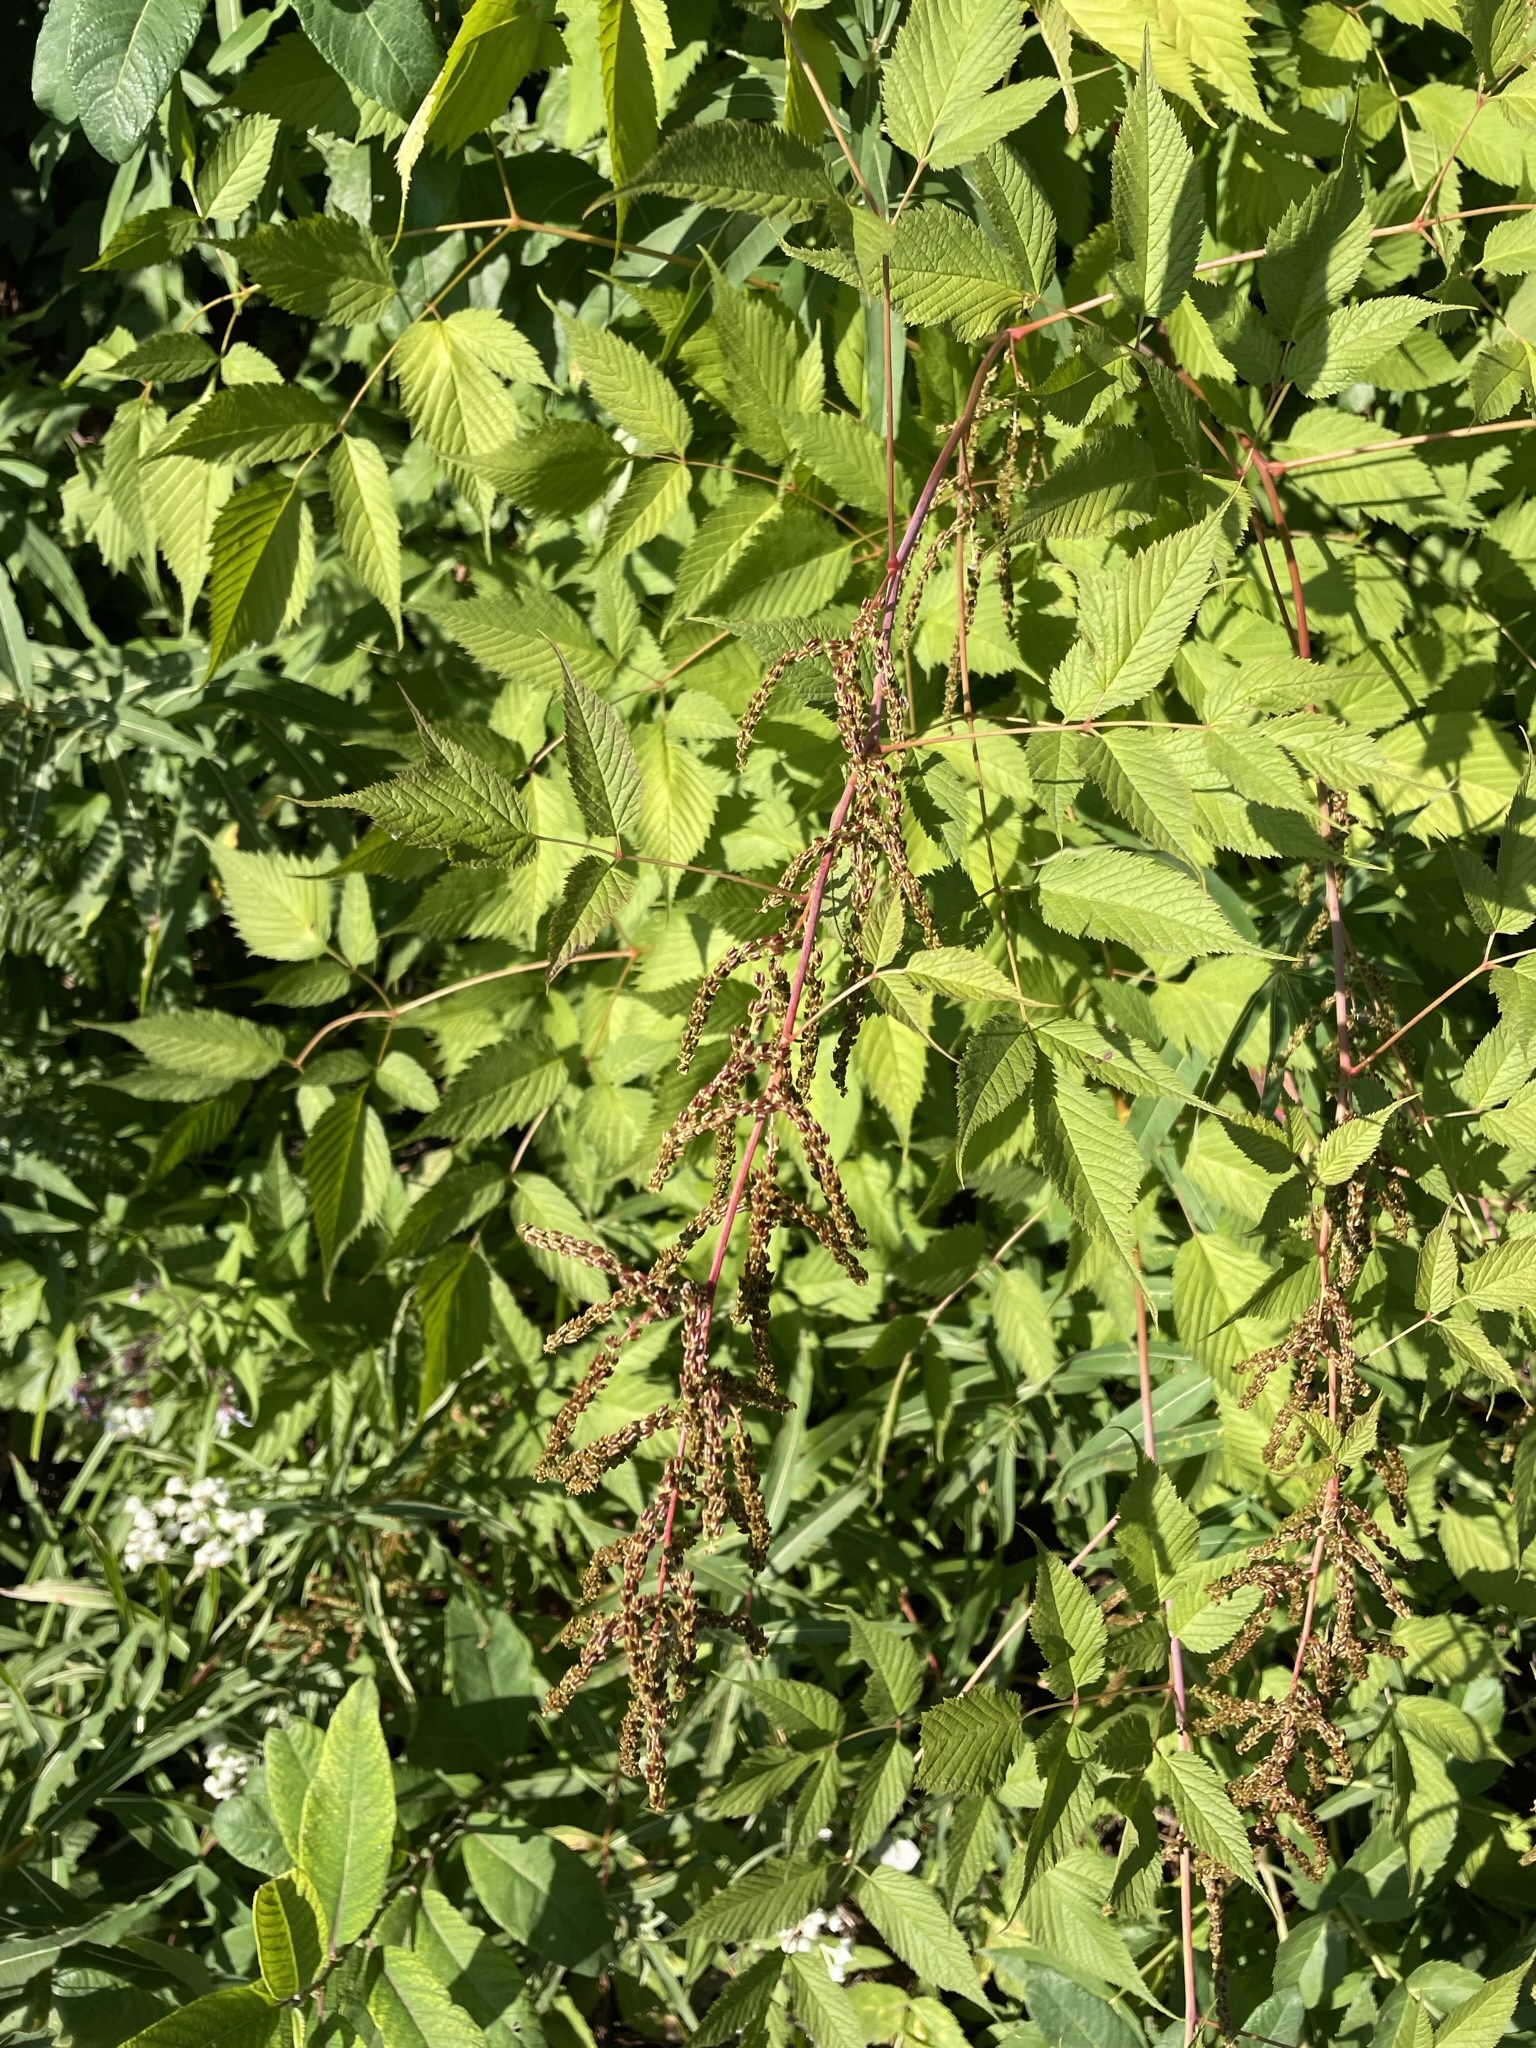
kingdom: Plantae
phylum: Tracheophyta
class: Magnoliopsida
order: Rosales
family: Rosaceae
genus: Aruncus
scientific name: Aruncus dioicus
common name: Buck's-beard
